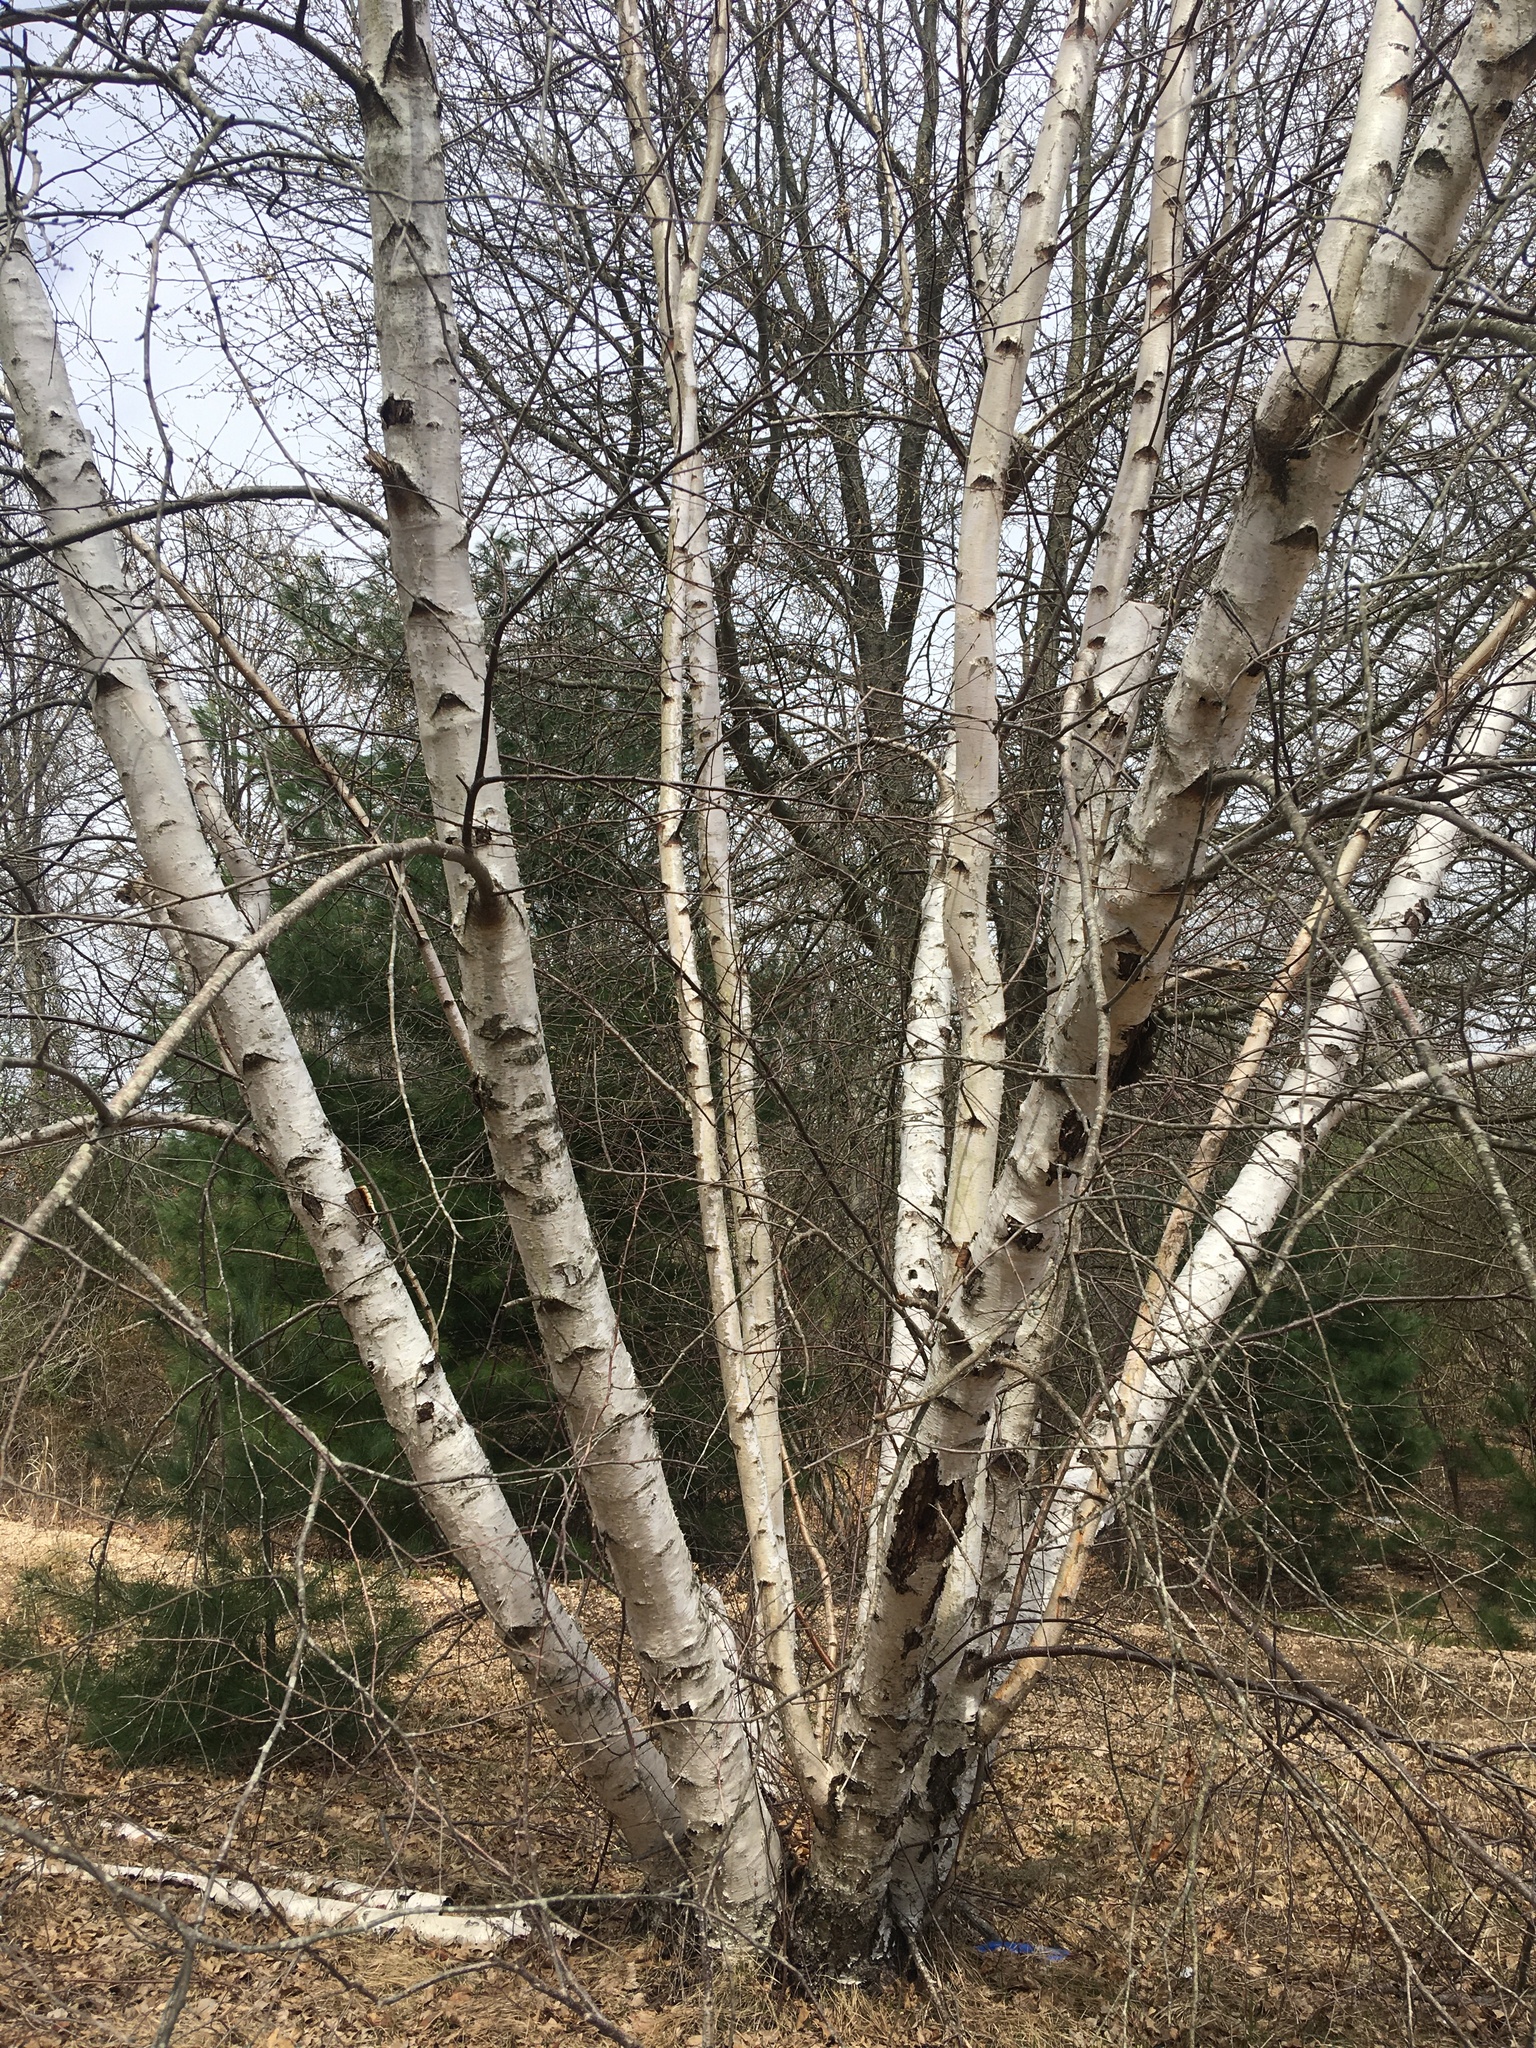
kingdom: Plantae
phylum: Tracheophyta
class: Magnoliopsida
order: Fagales
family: Betulaceae
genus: Betula
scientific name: Betula populifolia
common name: Fire birch
